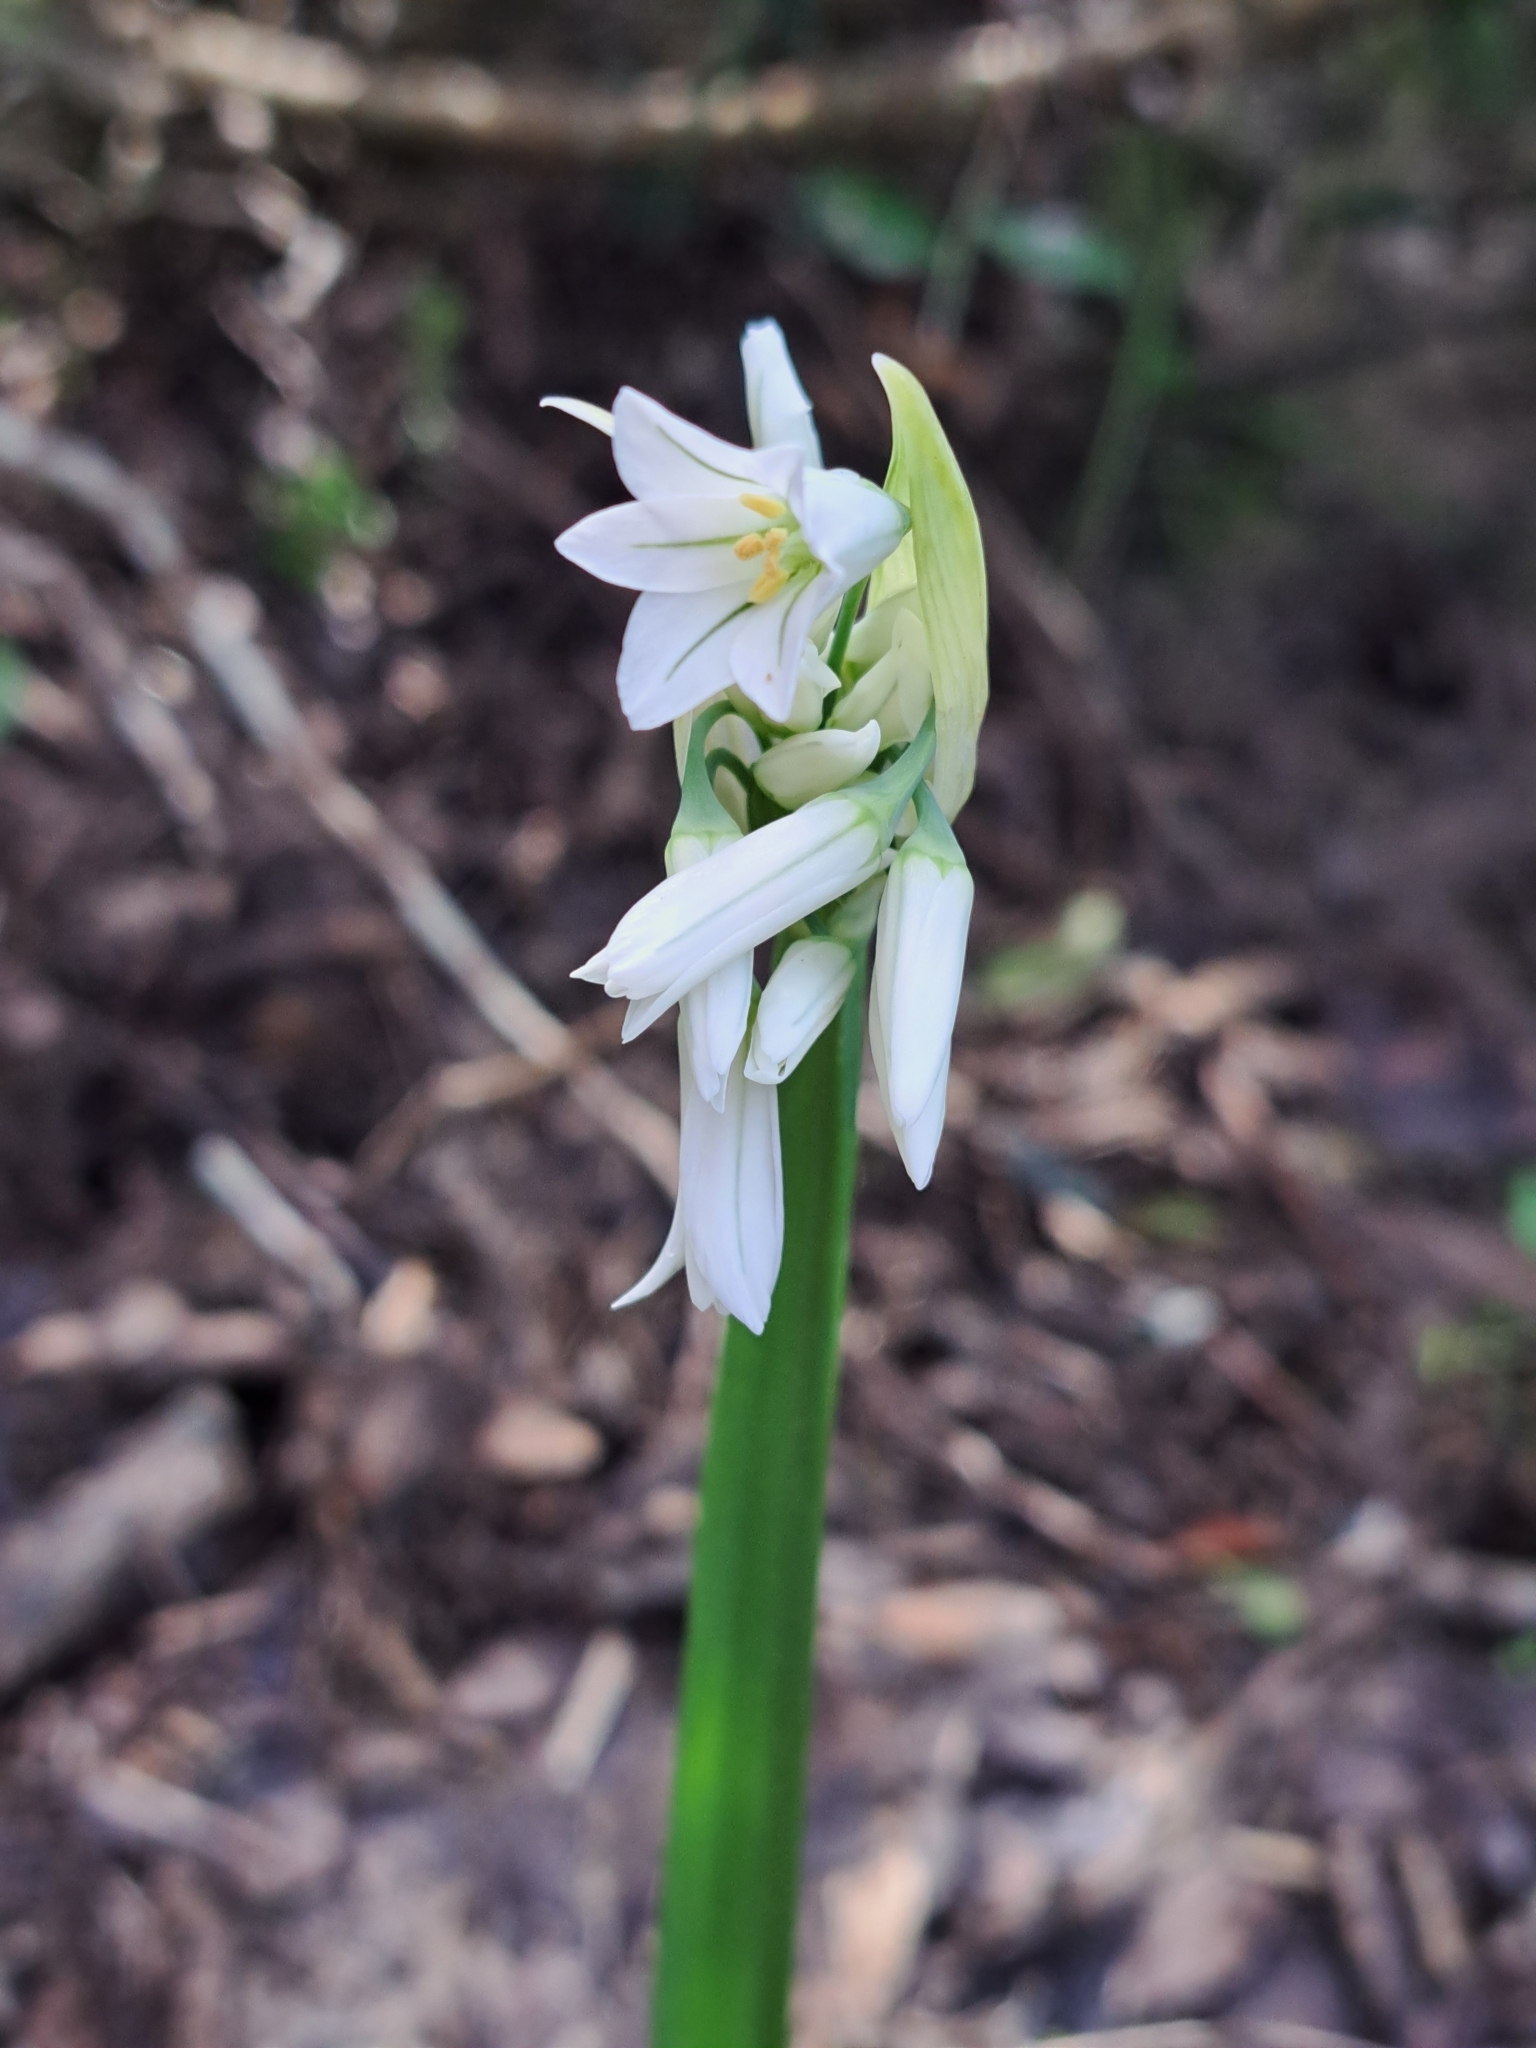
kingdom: Plantae
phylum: Tracheophyta
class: Liliopsida
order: Asparagales
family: Amaryllidaceae
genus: Allium
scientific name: Allium triquetrum
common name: Three-cornered garlic
